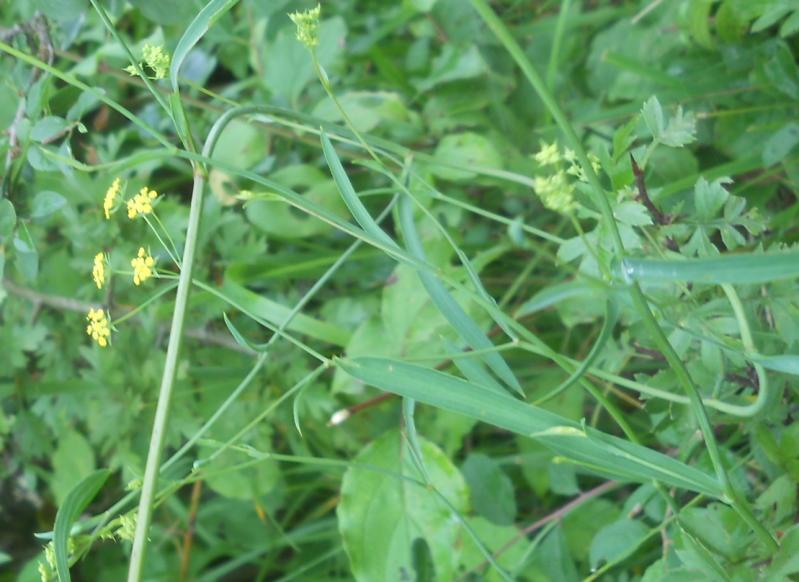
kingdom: Plantae
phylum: Tracheophyta
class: Magnoliopsida
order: Apiales
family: Apiaceae
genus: Bupleurum
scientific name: Bupleurum falcatum
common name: Sickle-leaved hare's-ear
